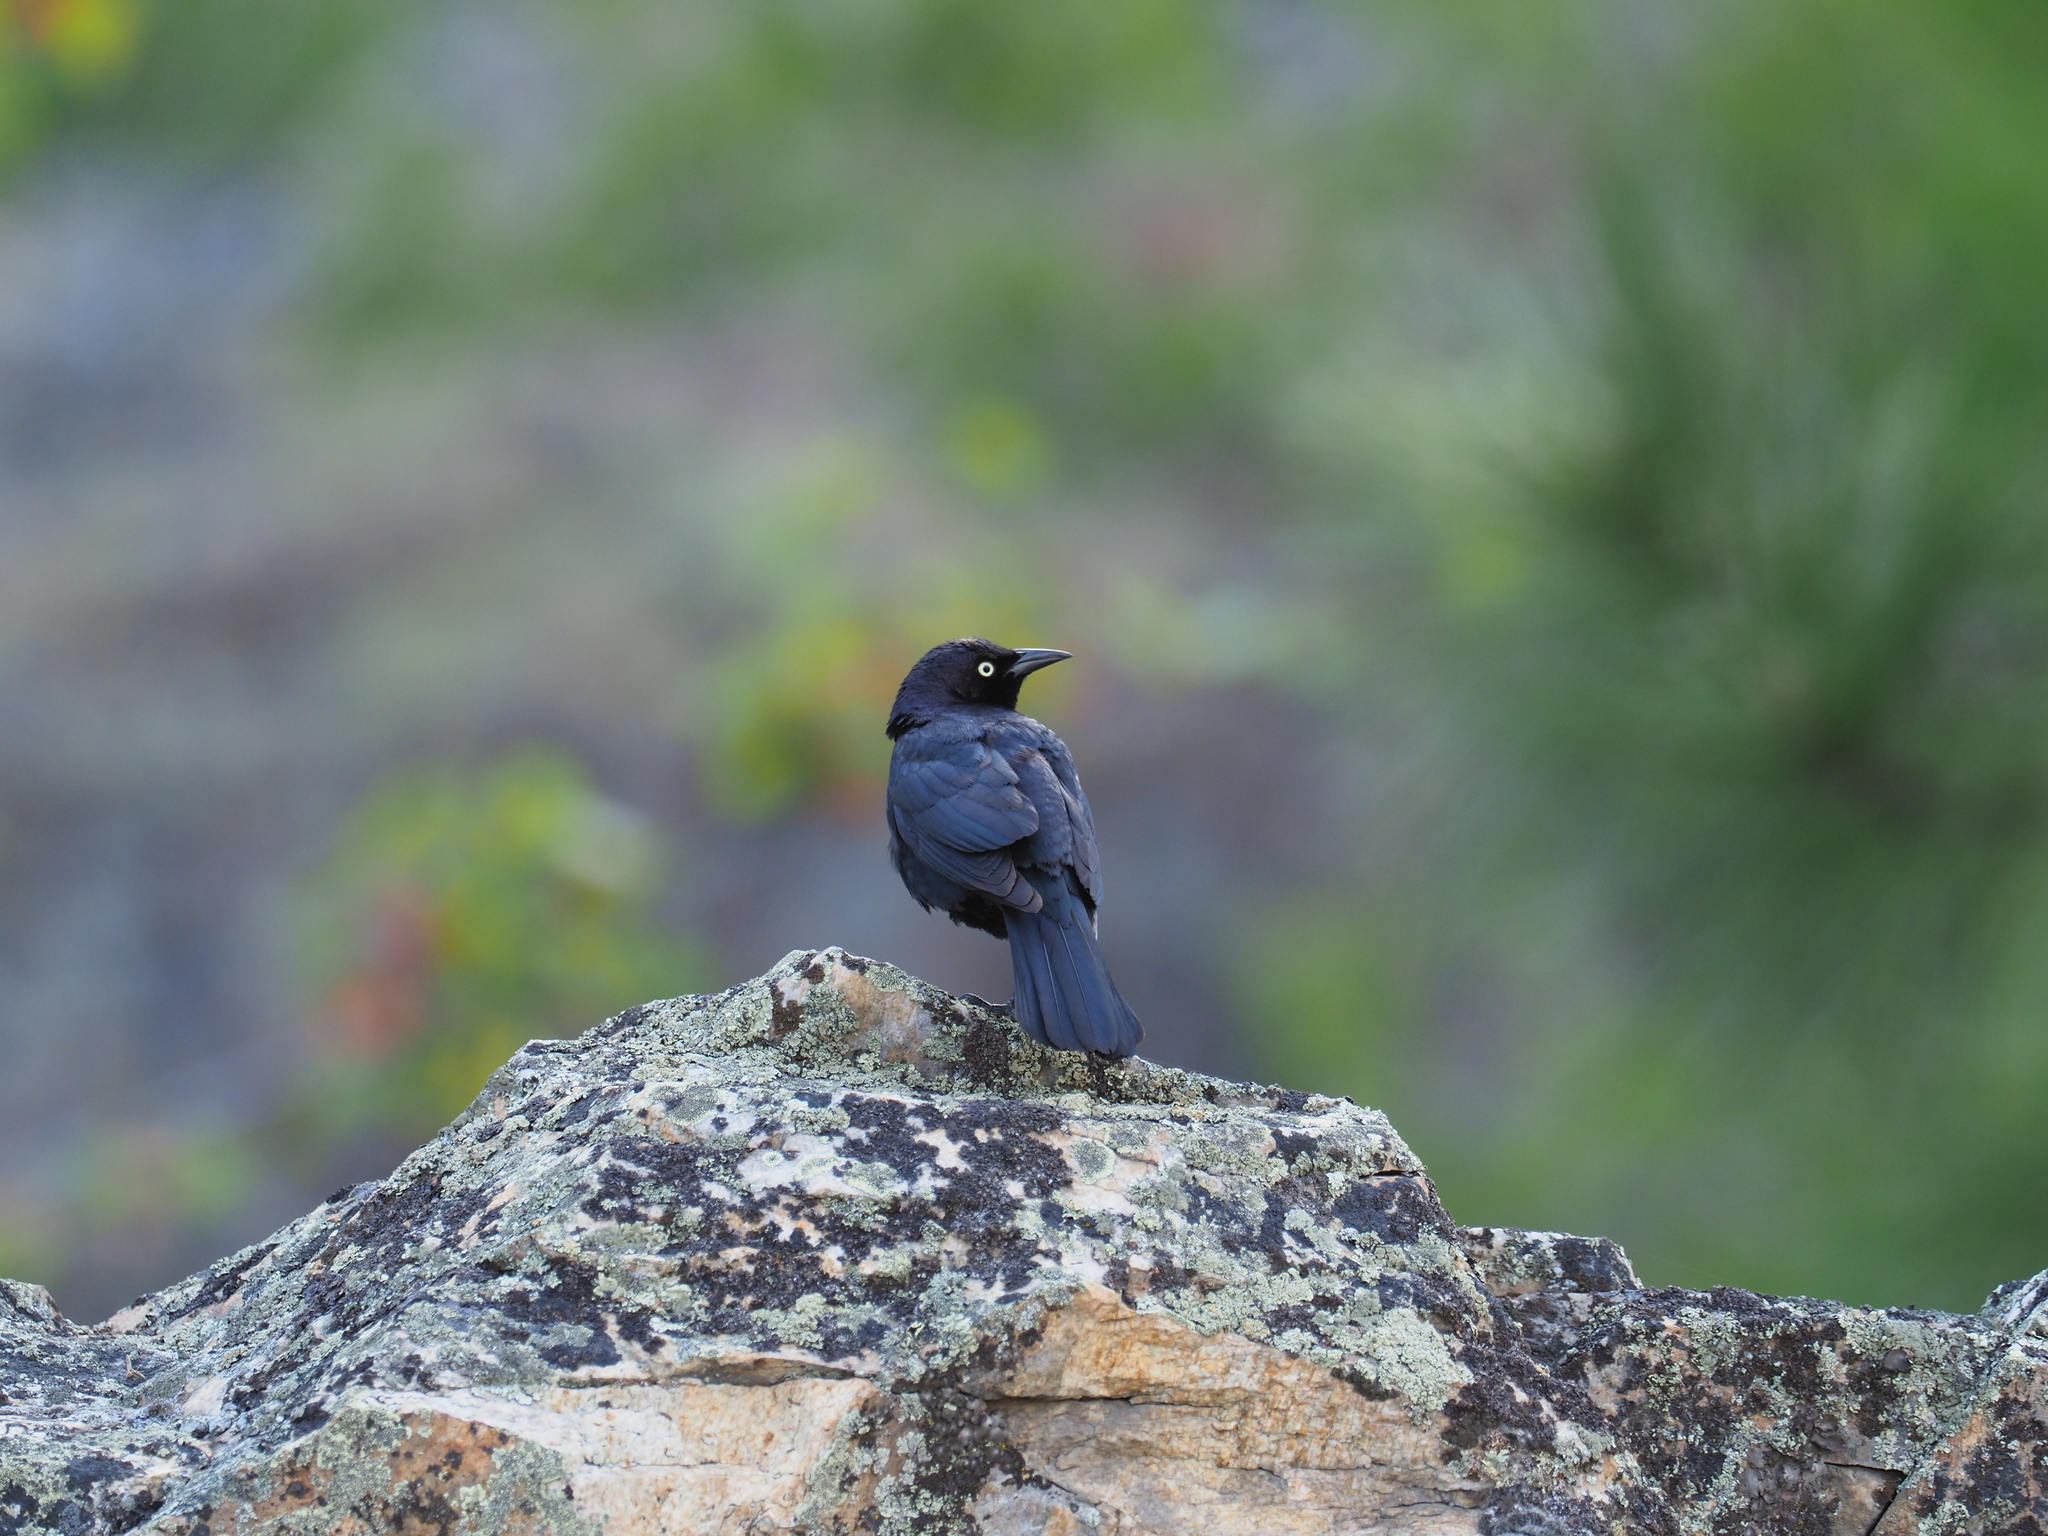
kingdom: Animalia
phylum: Chordata
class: Aves
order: Passeriformes
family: Icteridae
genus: Euphagus
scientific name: Euphagus cyanocephalus
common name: Brewer's blackbird
